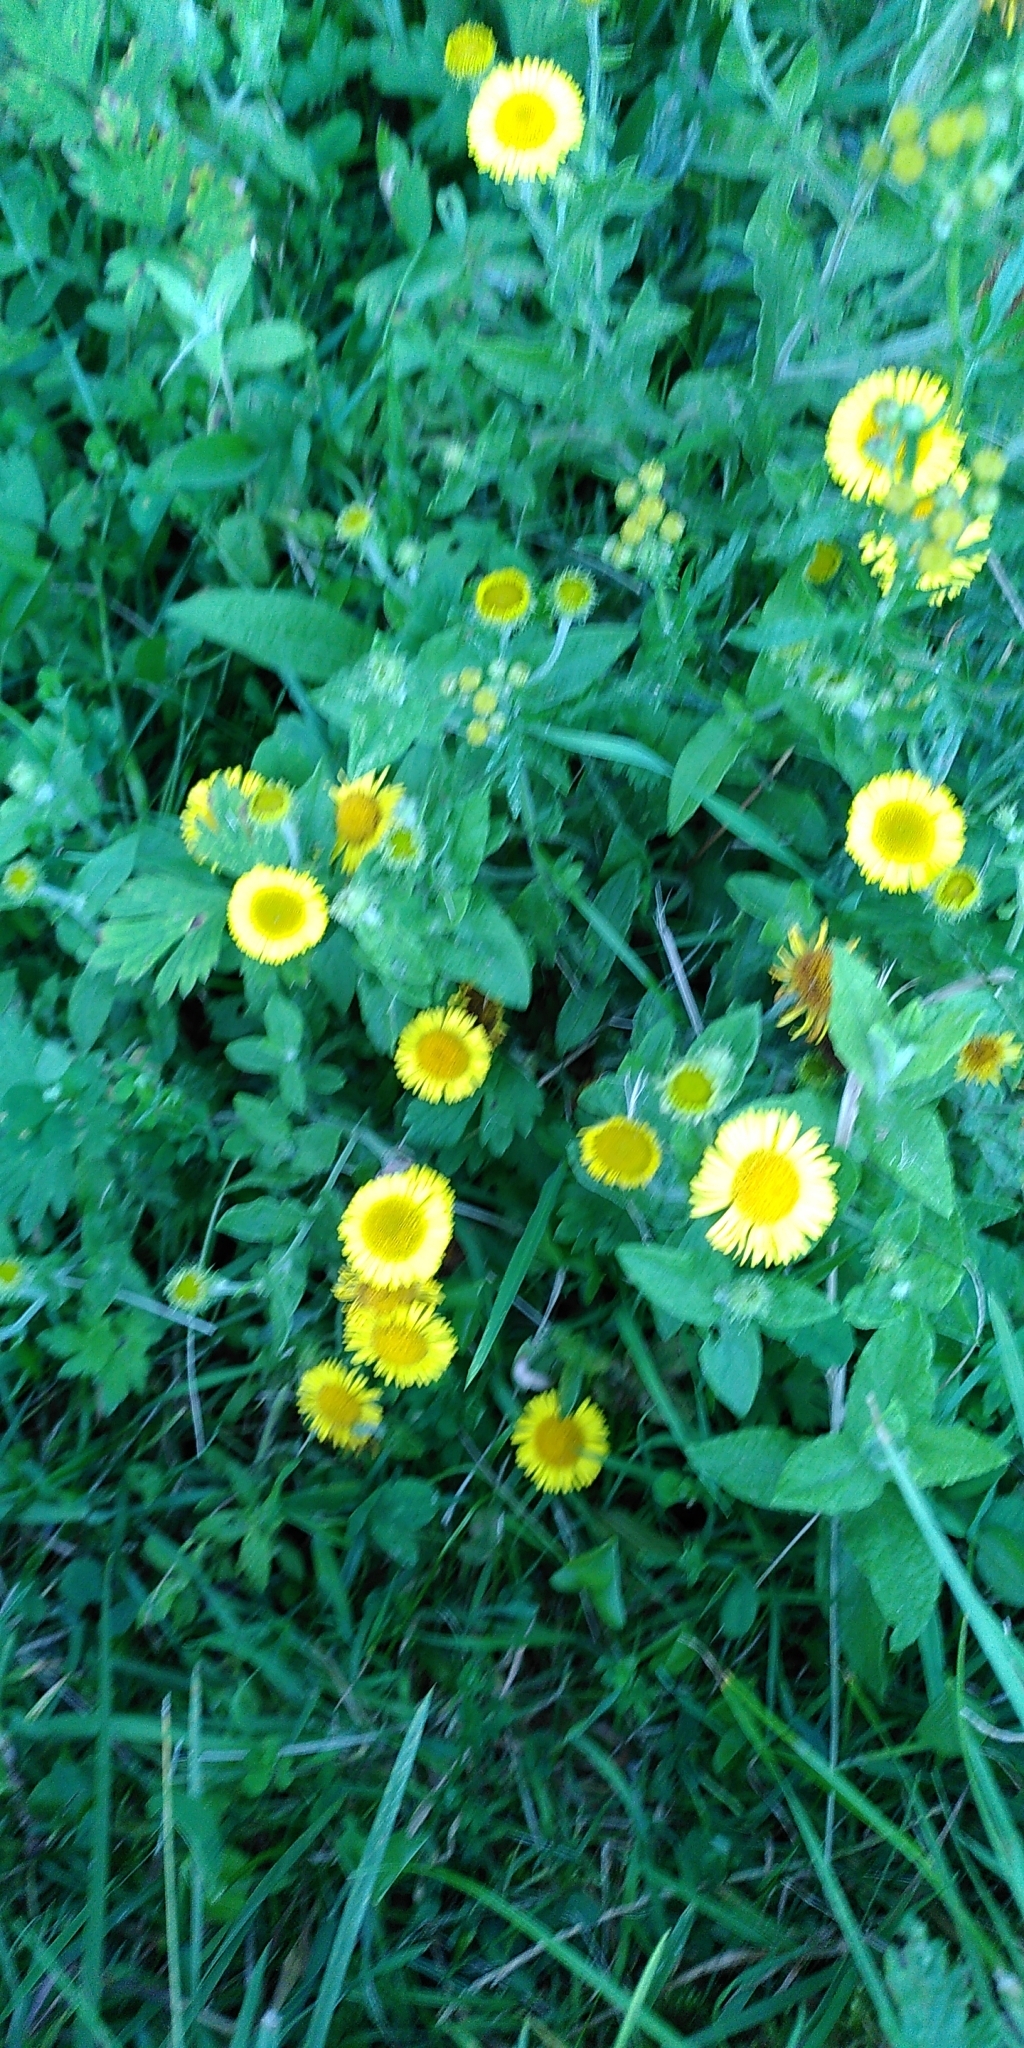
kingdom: Plantae
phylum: Tracheophyta
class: Magnoliopsida
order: Asterales
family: Asteraceae
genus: Pulicaria
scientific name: Pulicaria dysenterica
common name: Common fleabane
